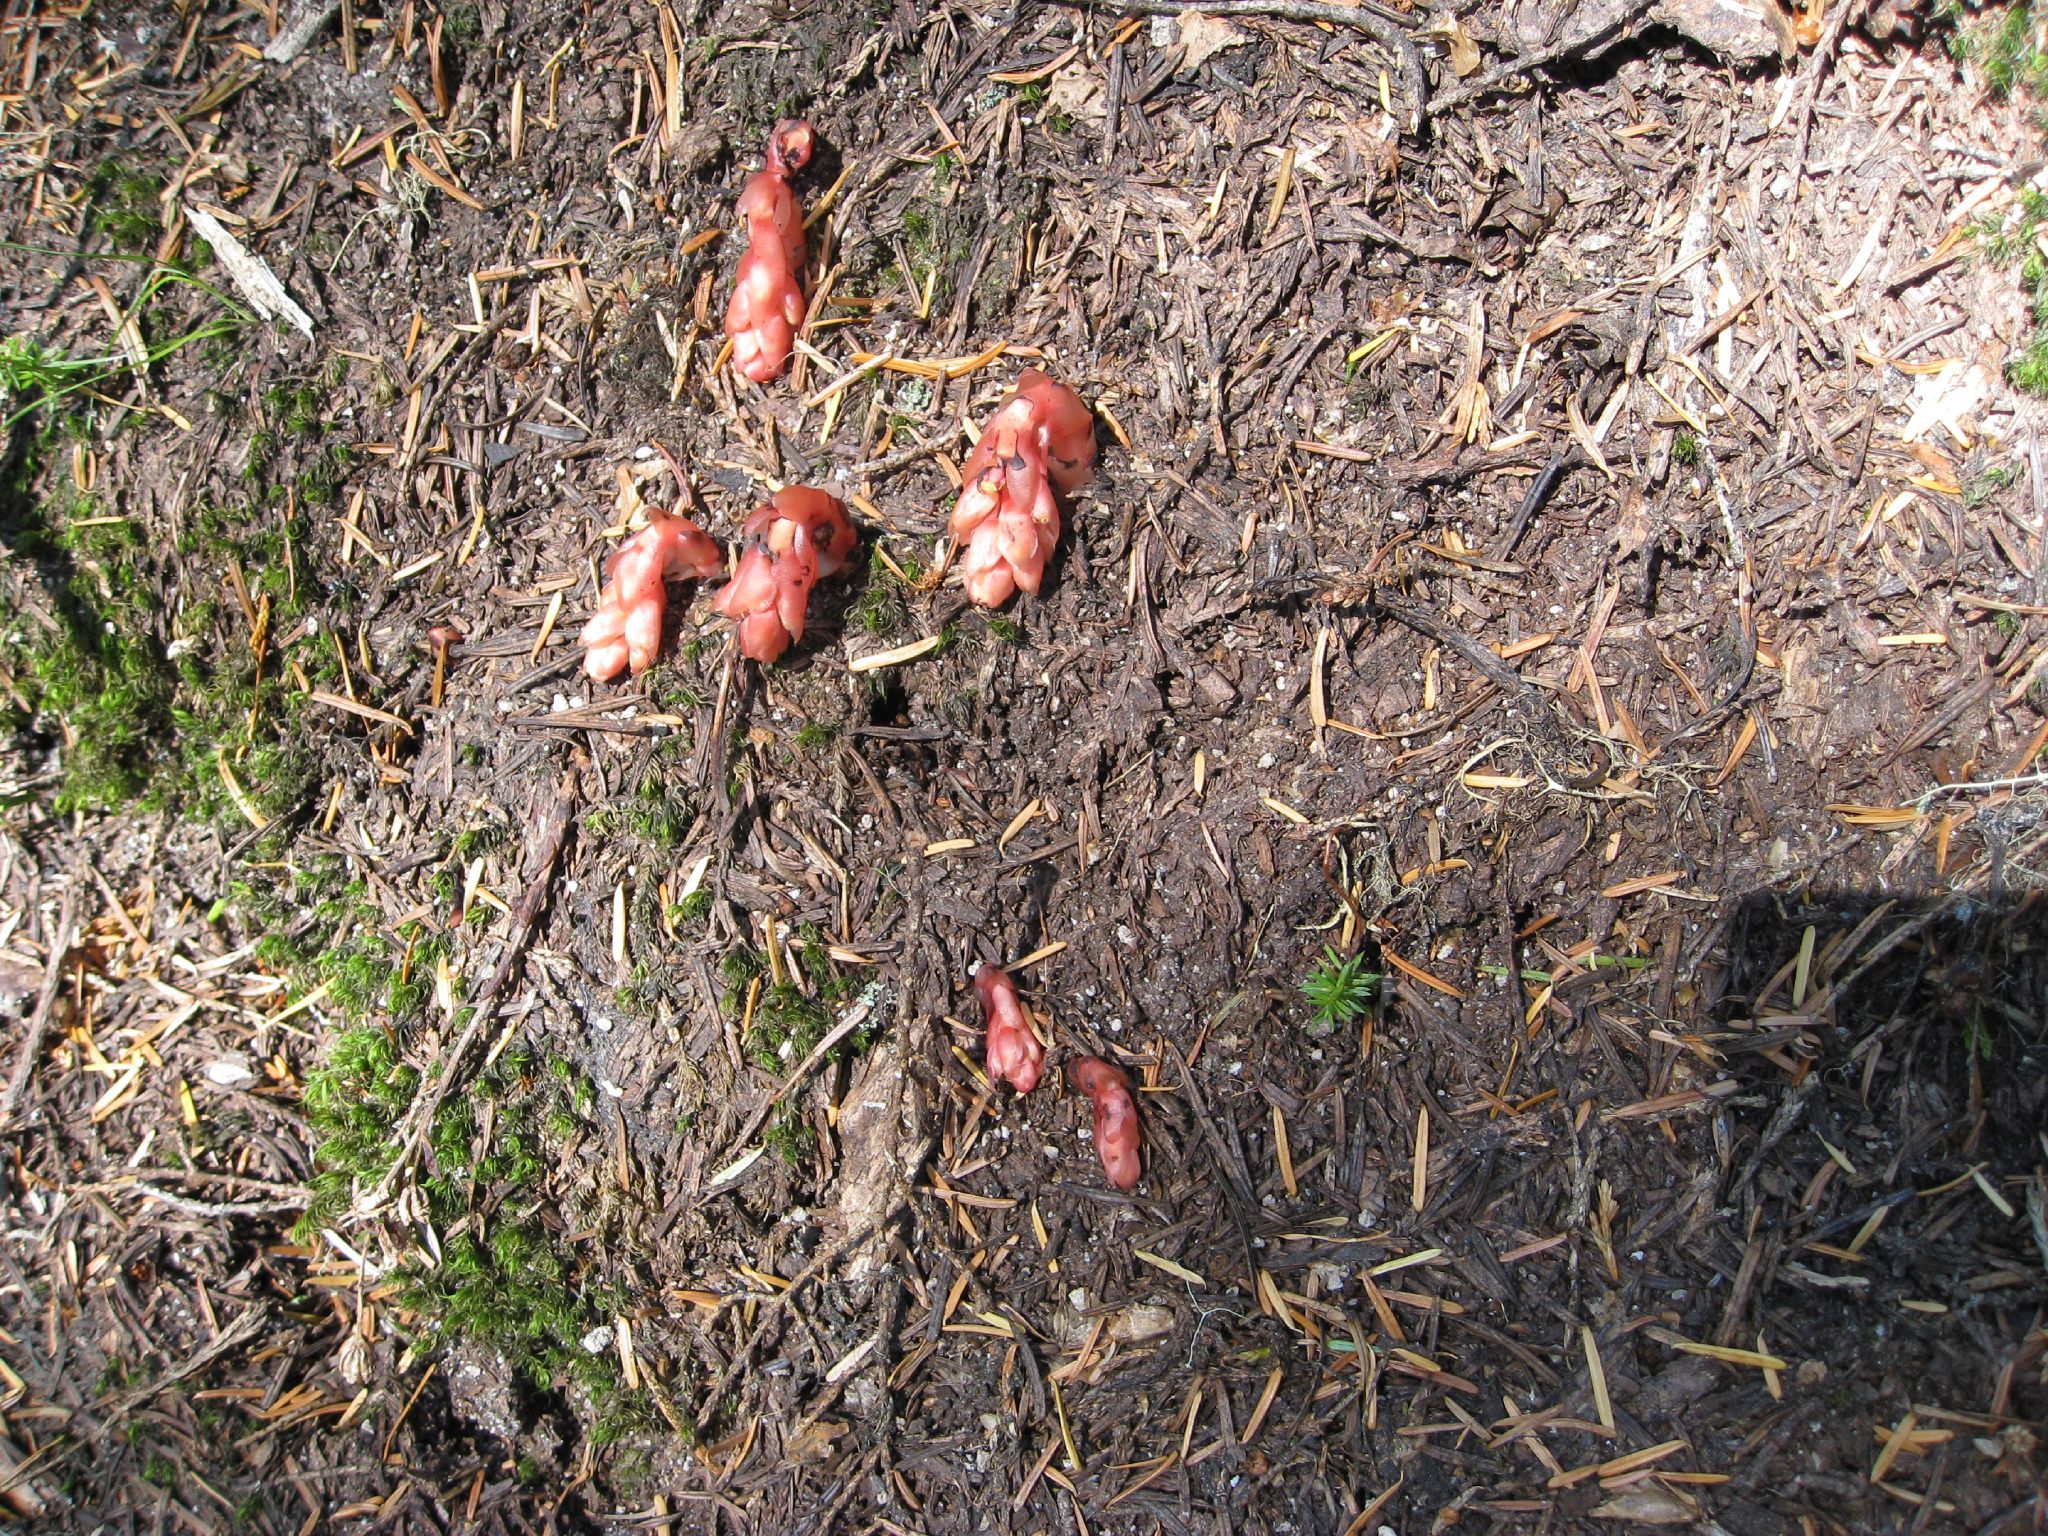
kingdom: Plantae
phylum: Tracheophyta
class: Magnoliopsida
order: Ericales
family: Ericaceae
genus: Hypopitys
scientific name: Hypopitys monotropa
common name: Yellow bird's-nest
